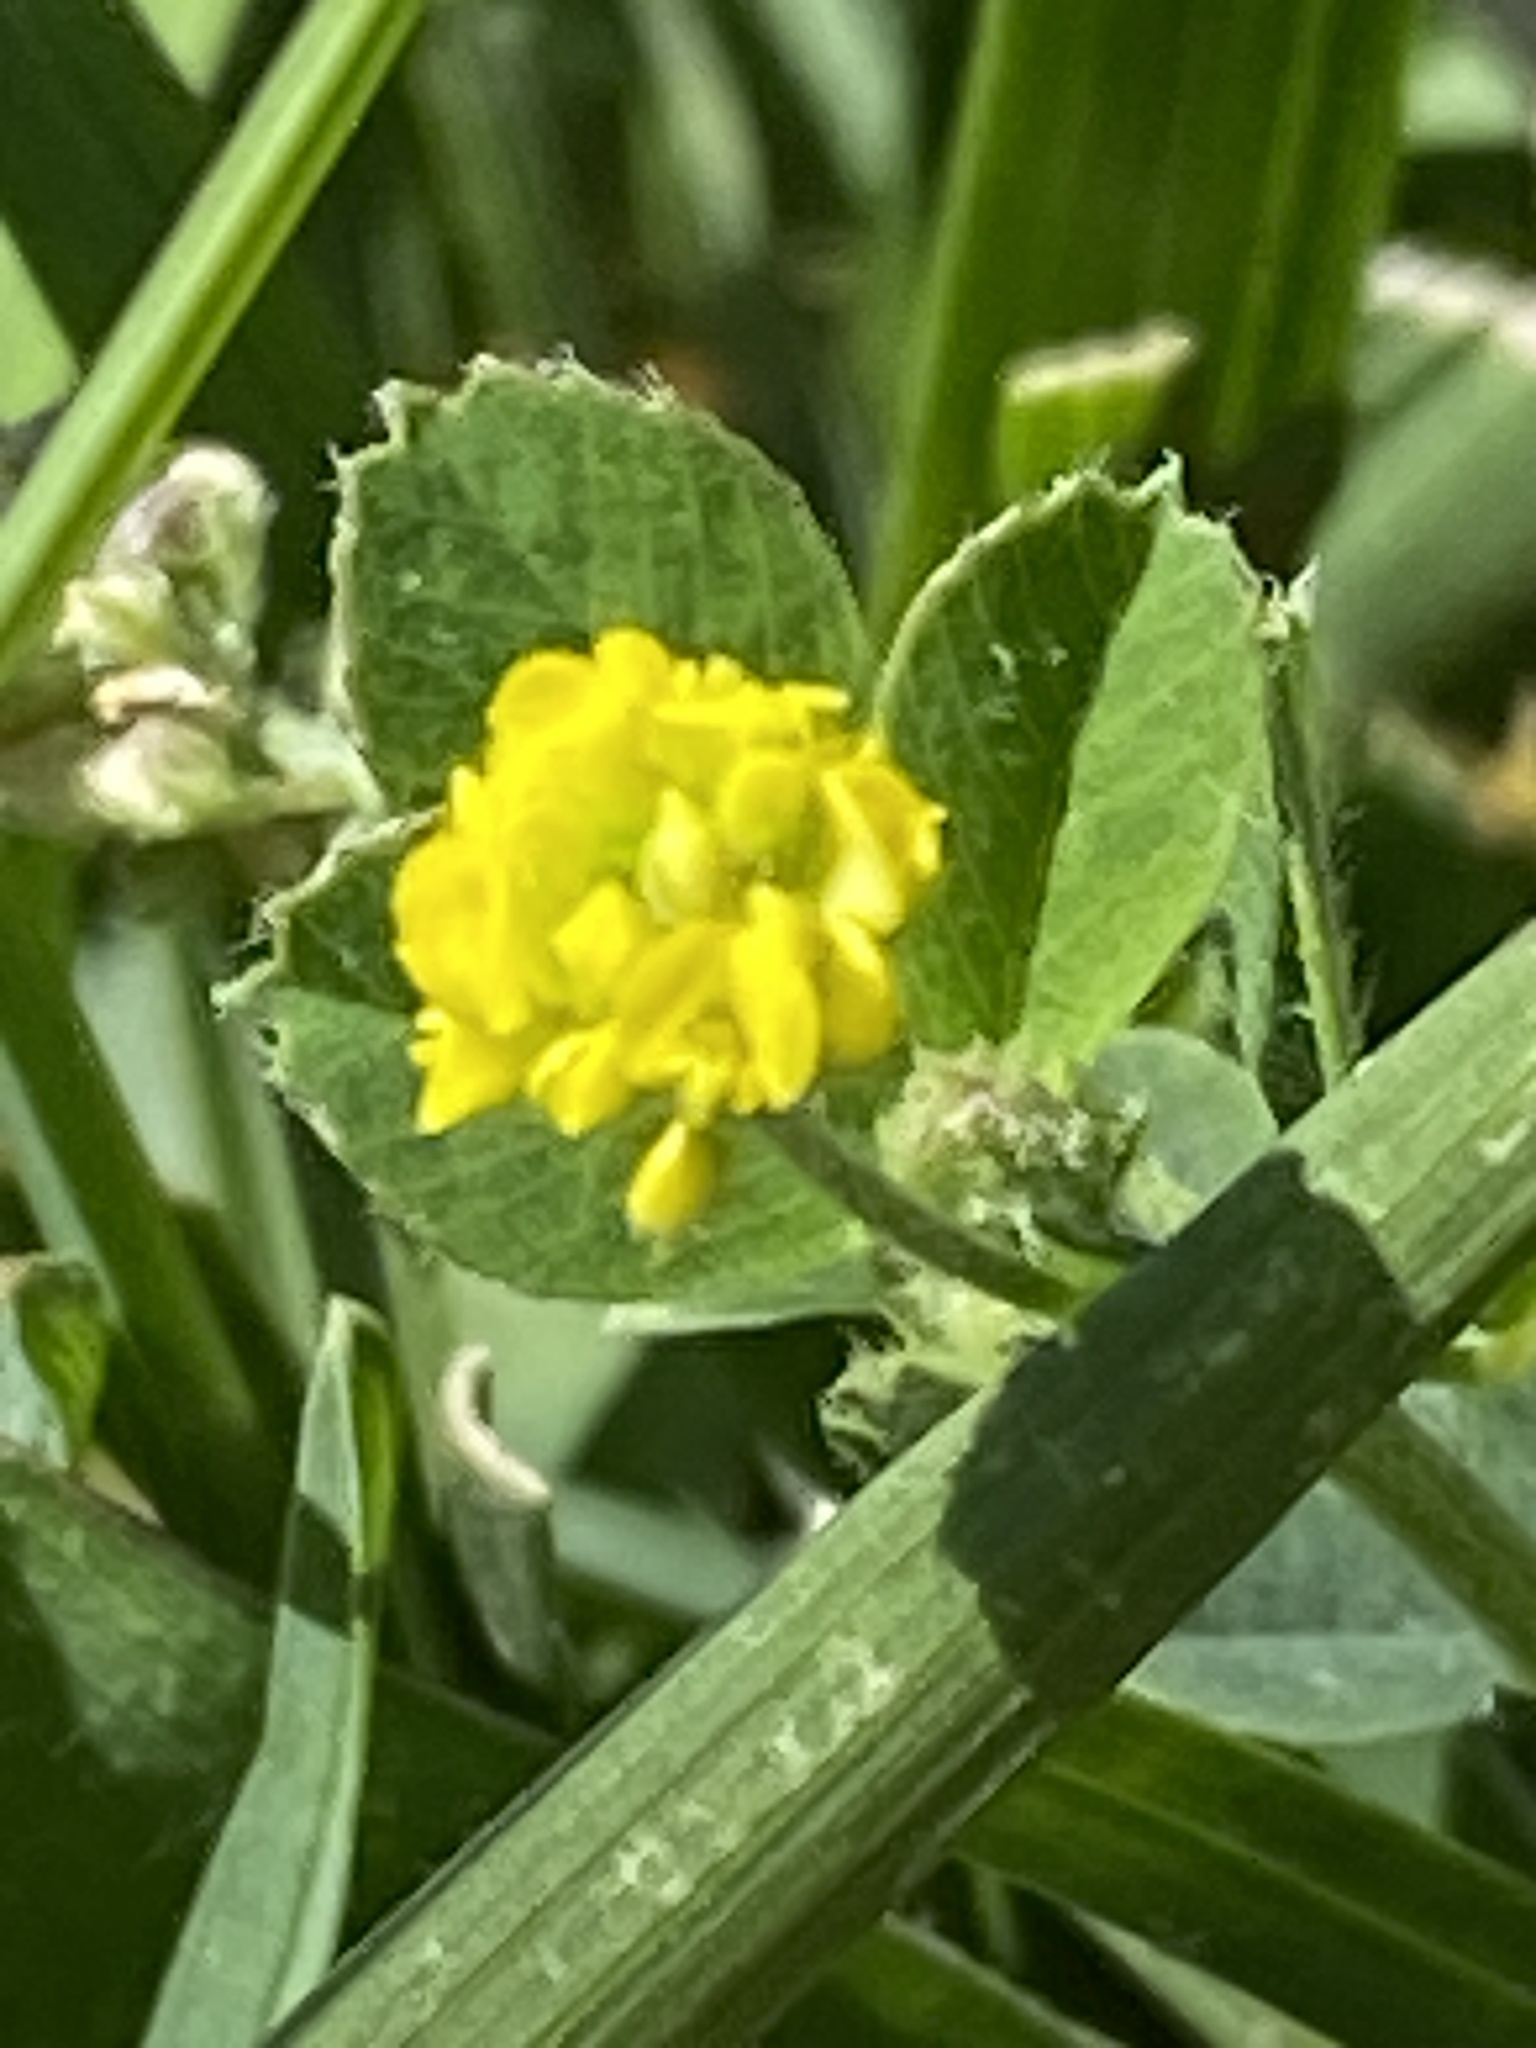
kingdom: Plantae
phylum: Tracheophyta
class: Magnoliopsida
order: Fabales
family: Fabaceae
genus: Medicago
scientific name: Medicago lupulina
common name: Black medick
